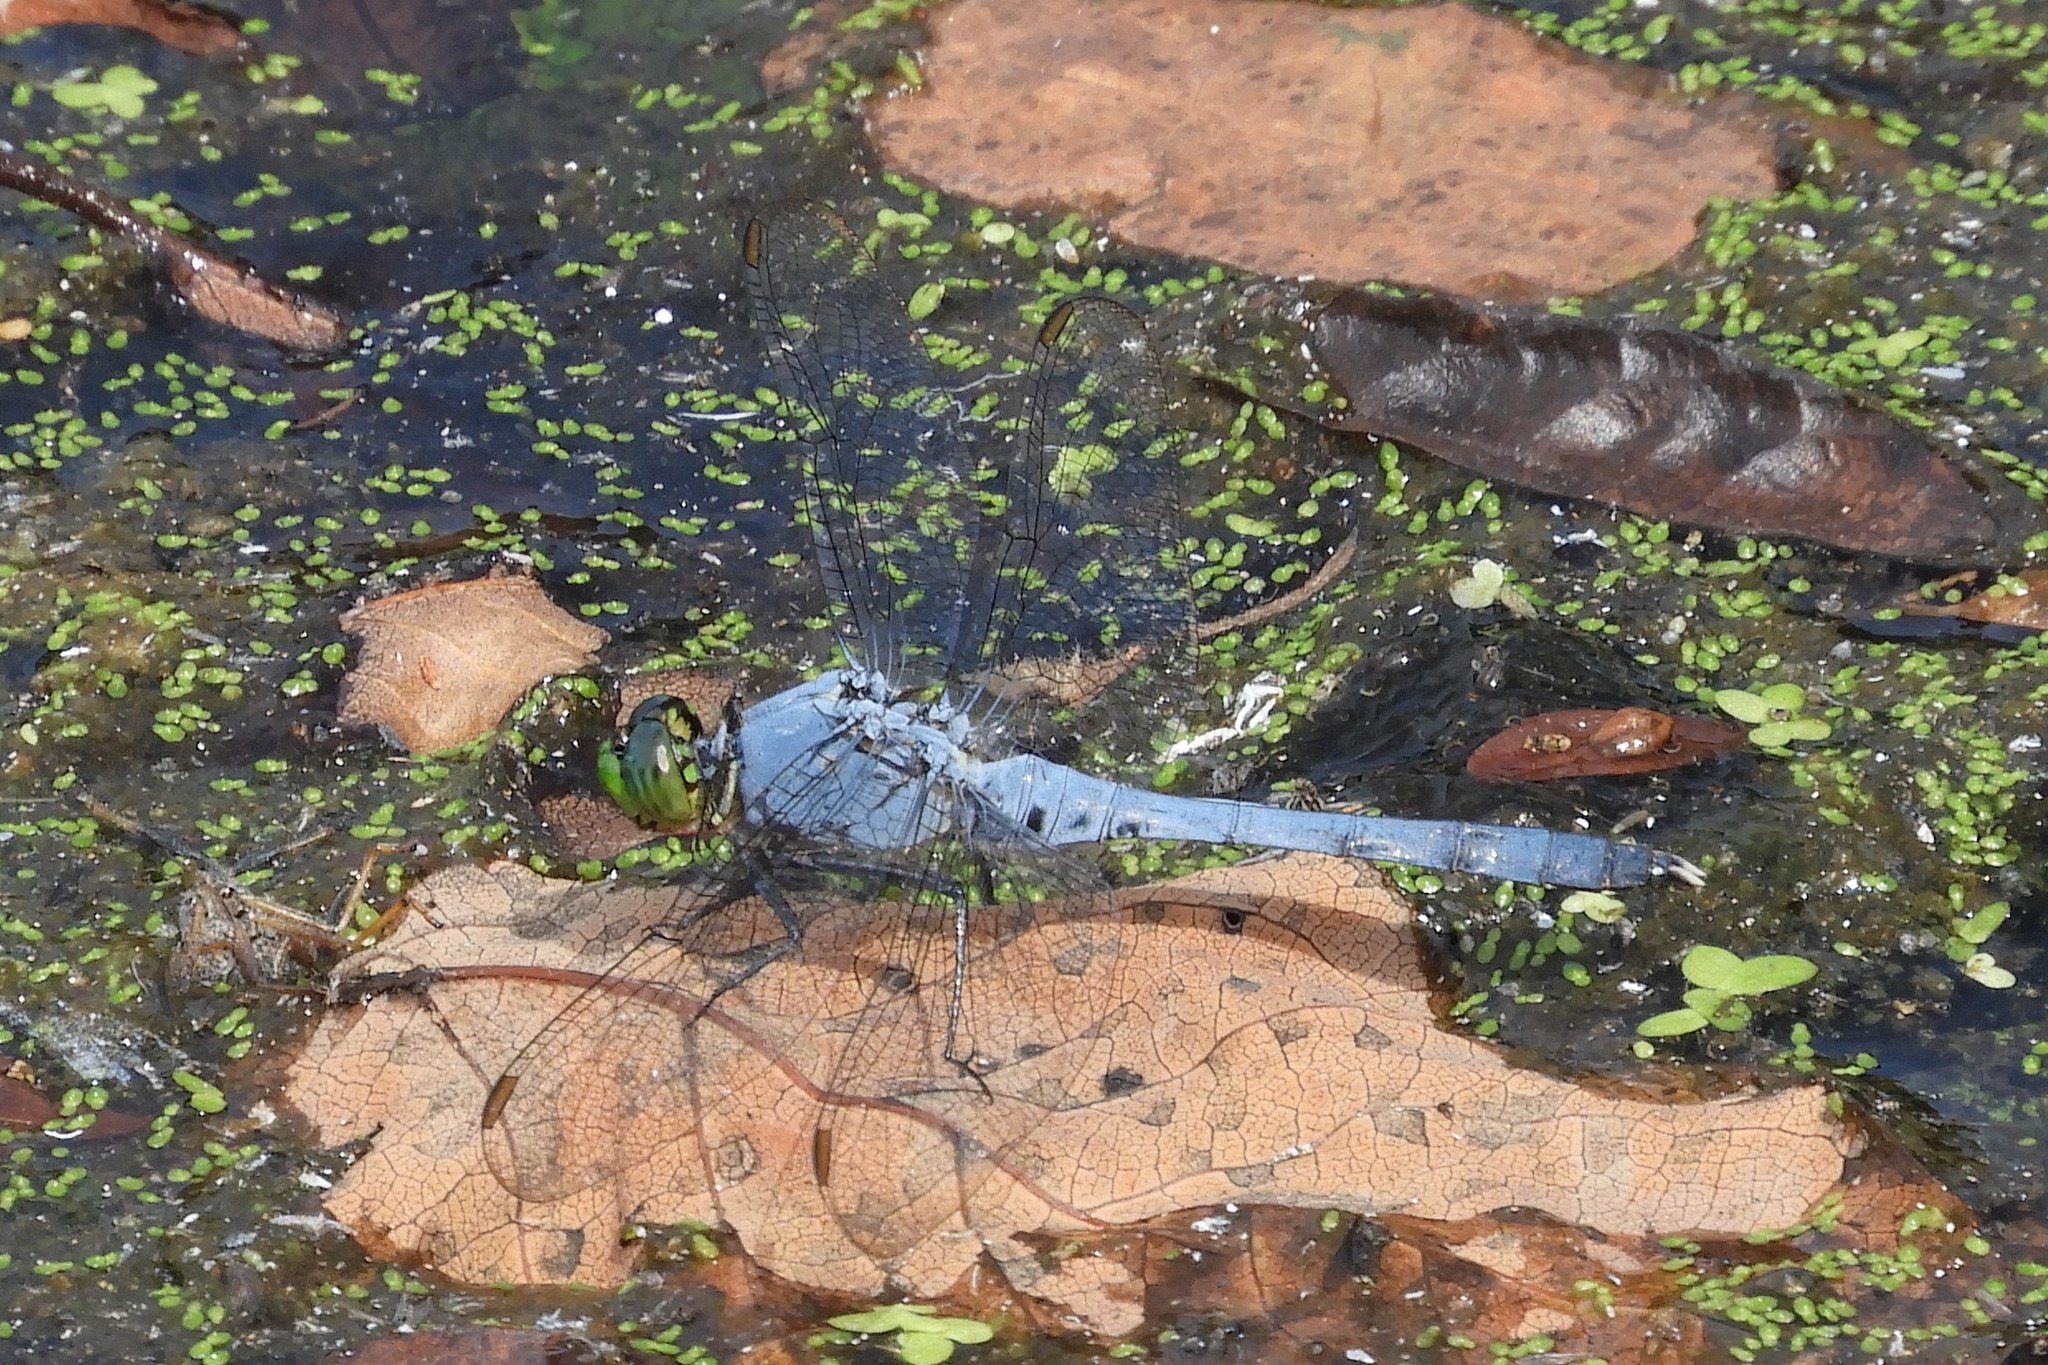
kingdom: Animalia
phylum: Arthropoda
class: Insecta
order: Odonata
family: Libellulidae
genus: Erythemis
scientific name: Erythemis simplicicollis
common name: Eastern pondhawk
